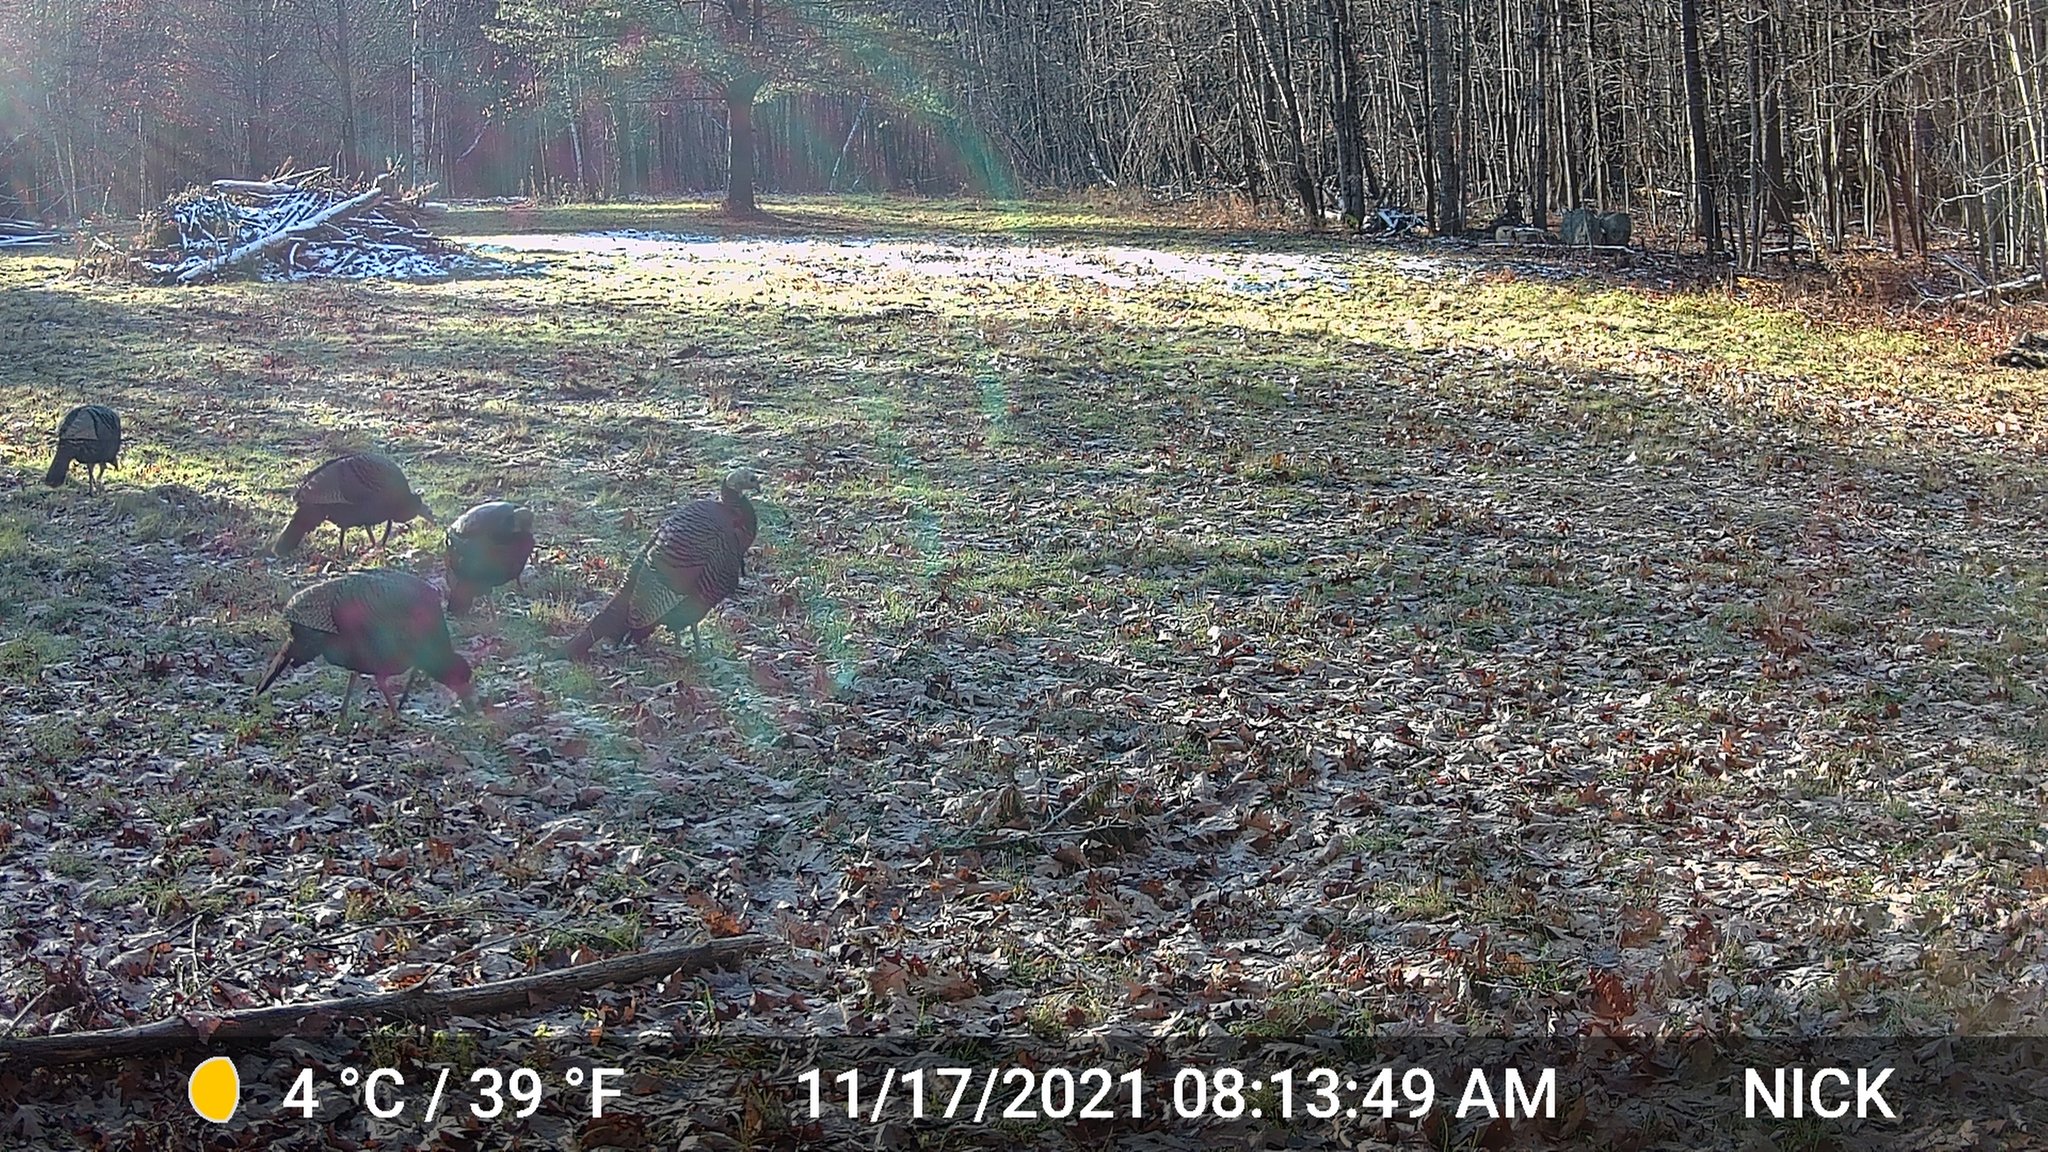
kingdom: Animalia
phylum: Chordata
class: Aves
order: Galliformes
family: Phasianidae
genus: Meleagris
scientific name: Meleagris gallopavo
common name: Wild turkey
